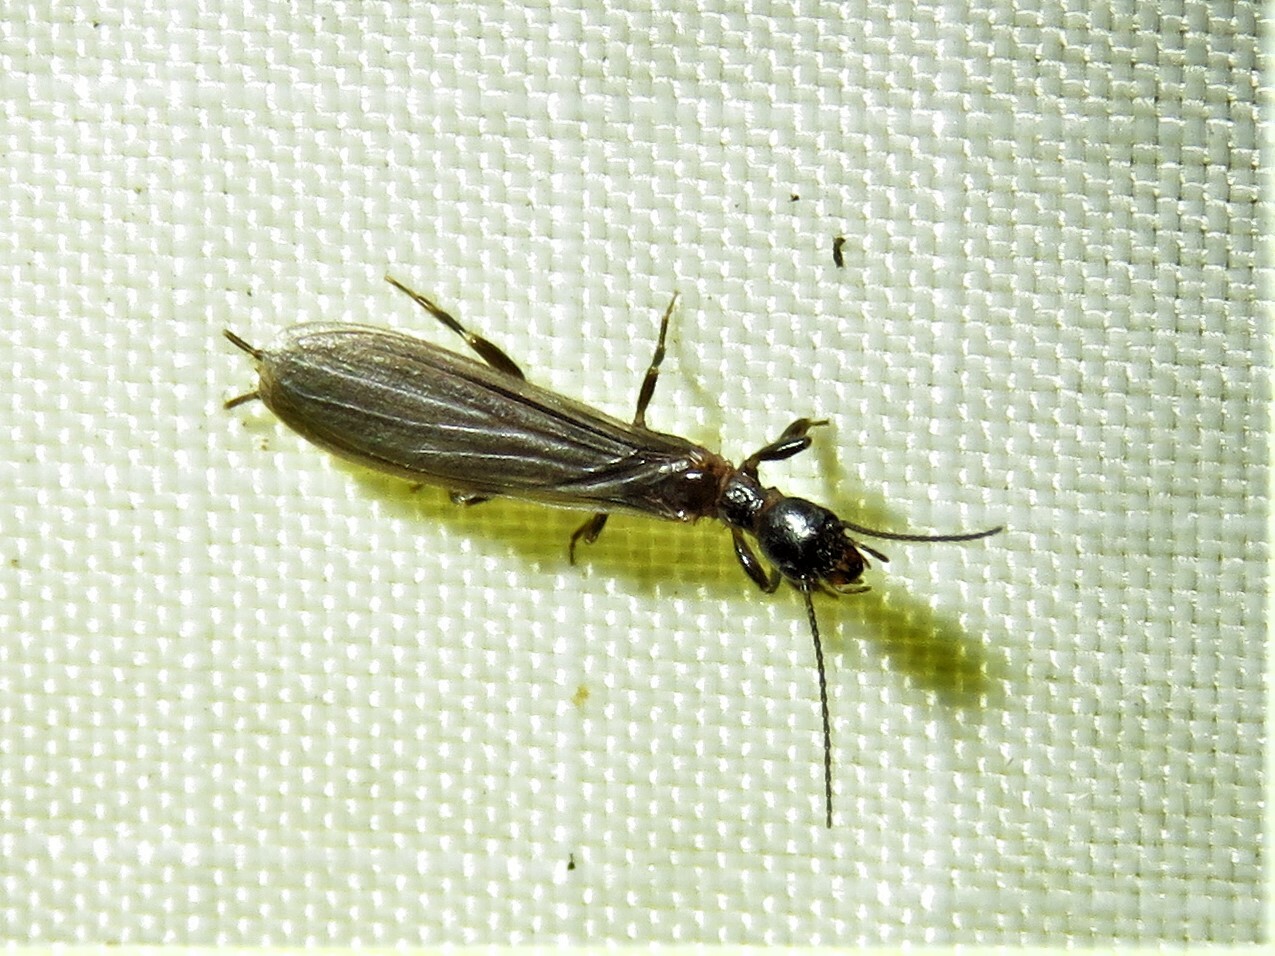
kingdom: Animalia
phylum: Arthropoda
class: Insecta
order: Embioptera
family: Oligotomidae
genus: Oligotoma
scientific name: Oligotoma nigra
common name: Black webspinner
